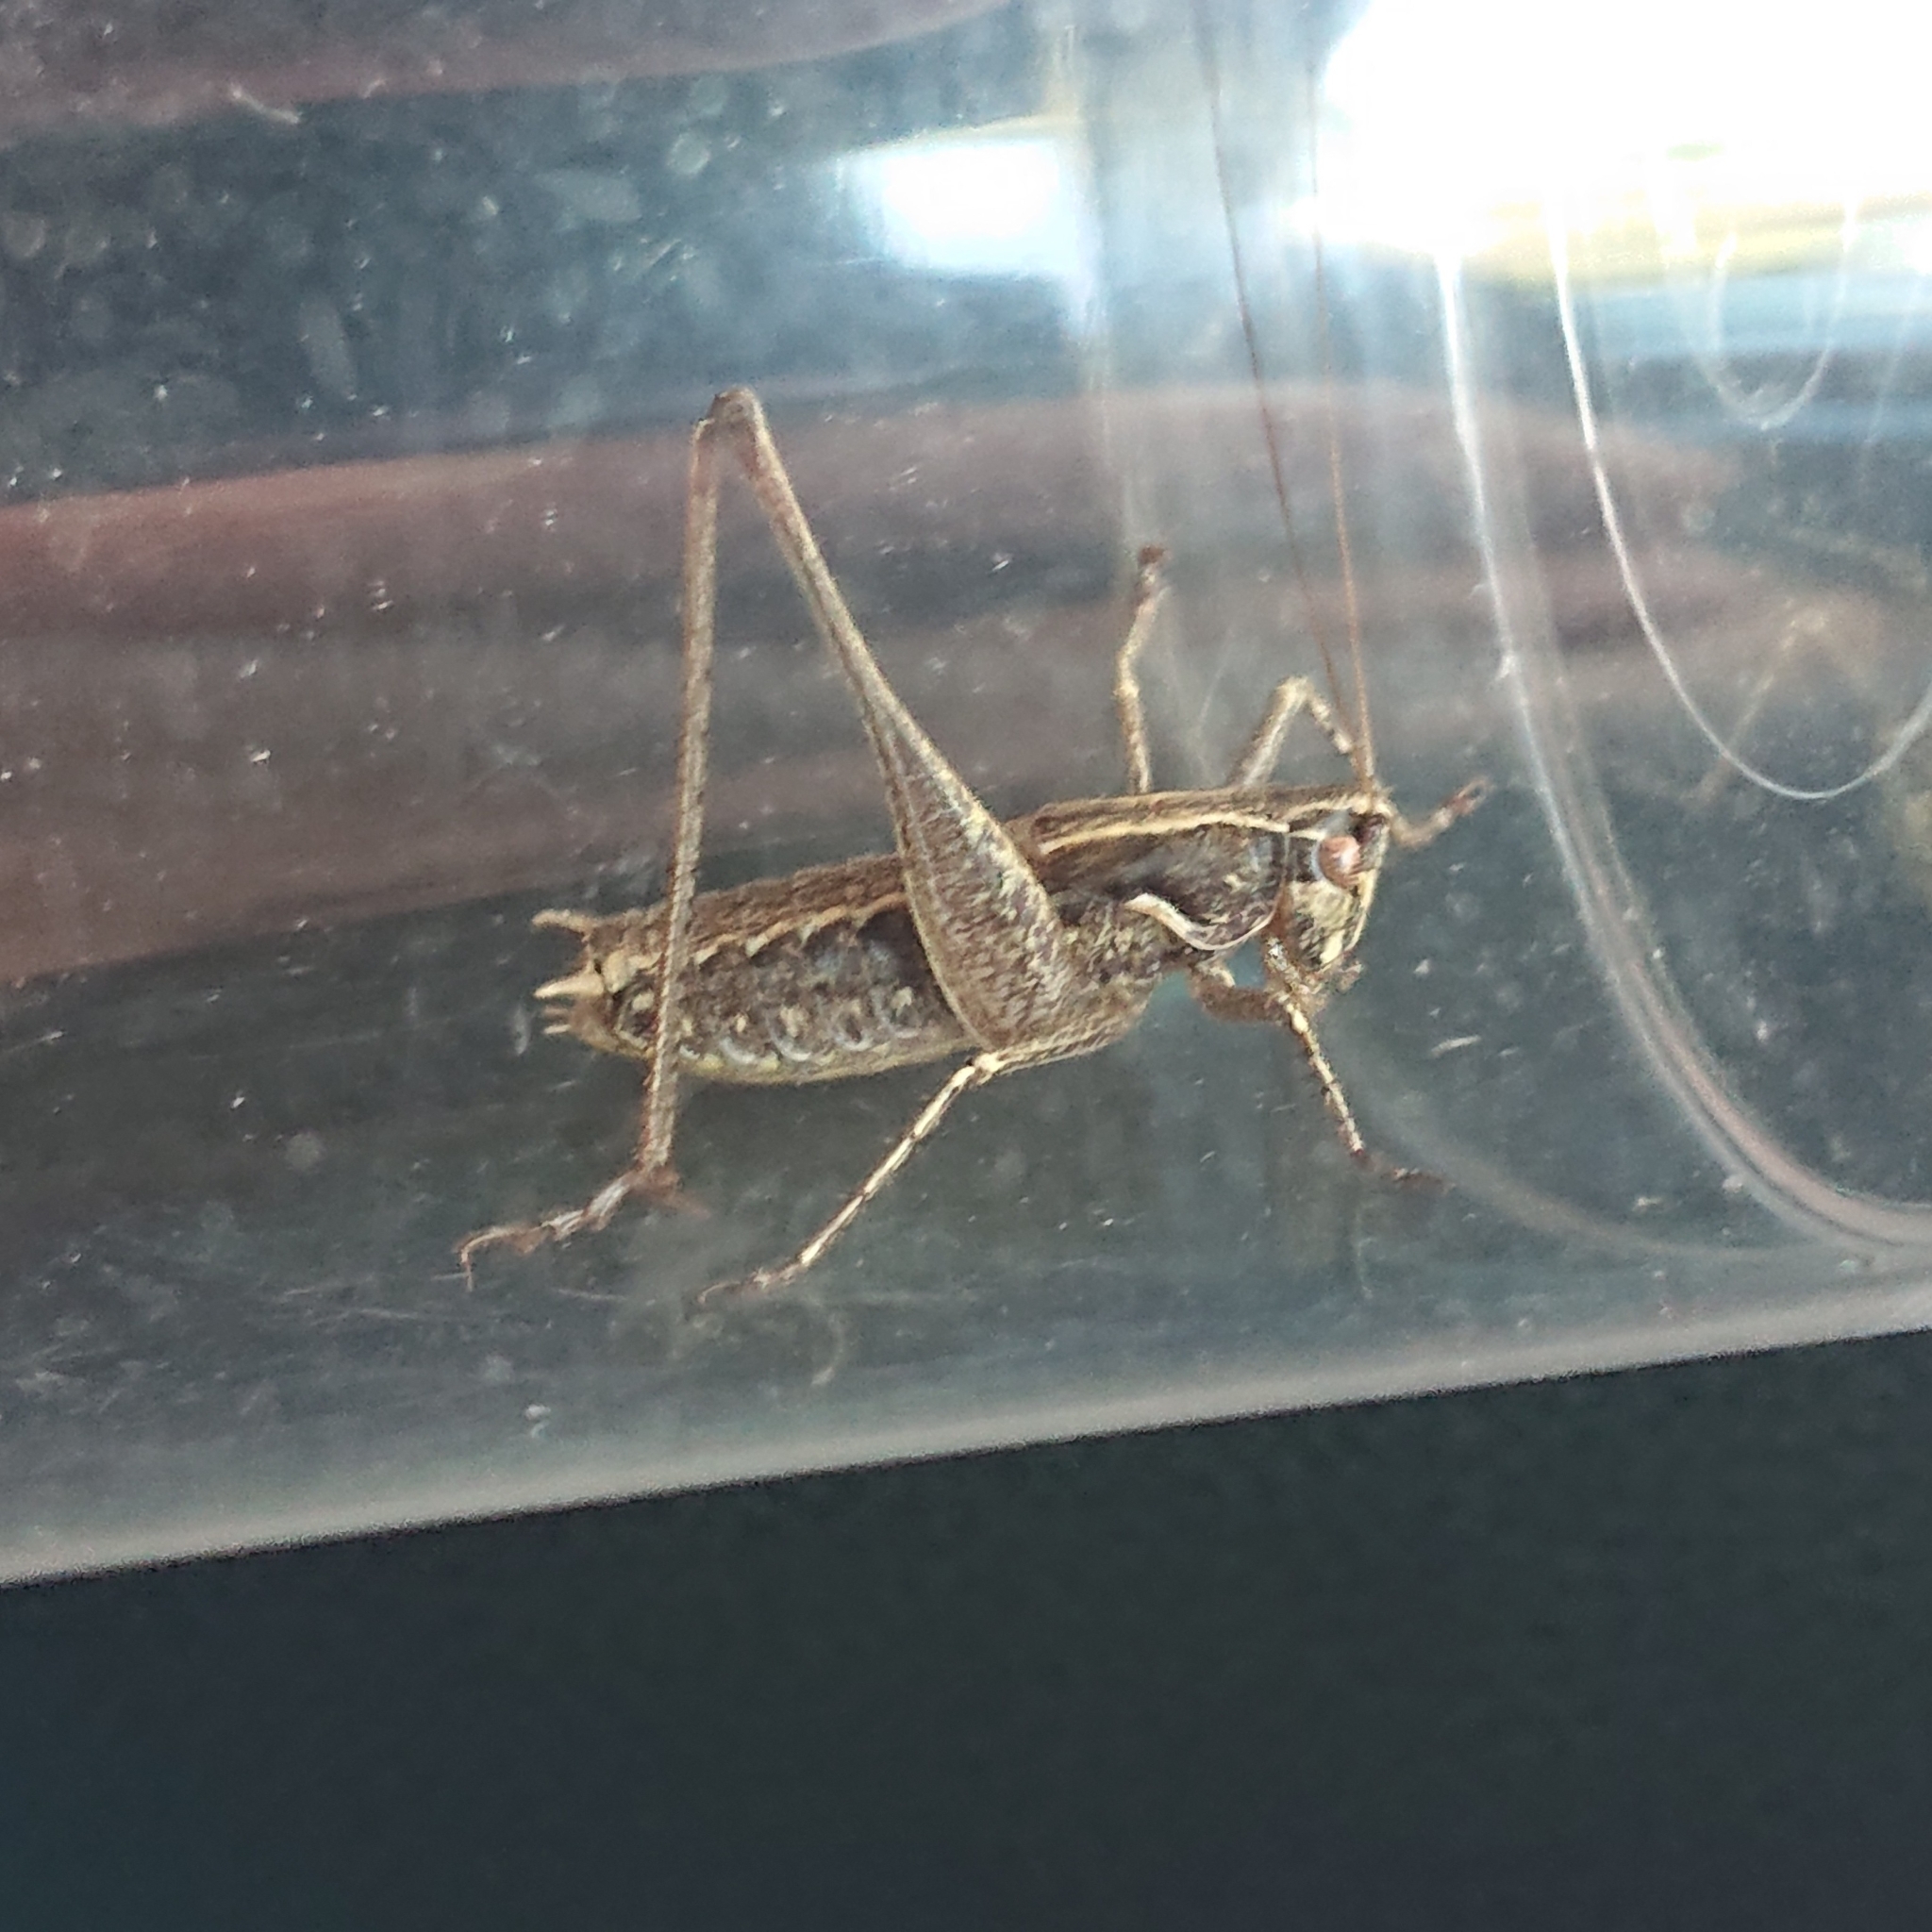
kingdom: Animalia
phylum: Arthropoda
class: Insecta
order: Orthoptera
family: Tettigoniidae
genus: Rhacocleis
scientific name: Rhacocleis germanica
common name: Mediterranean bush-cricket
